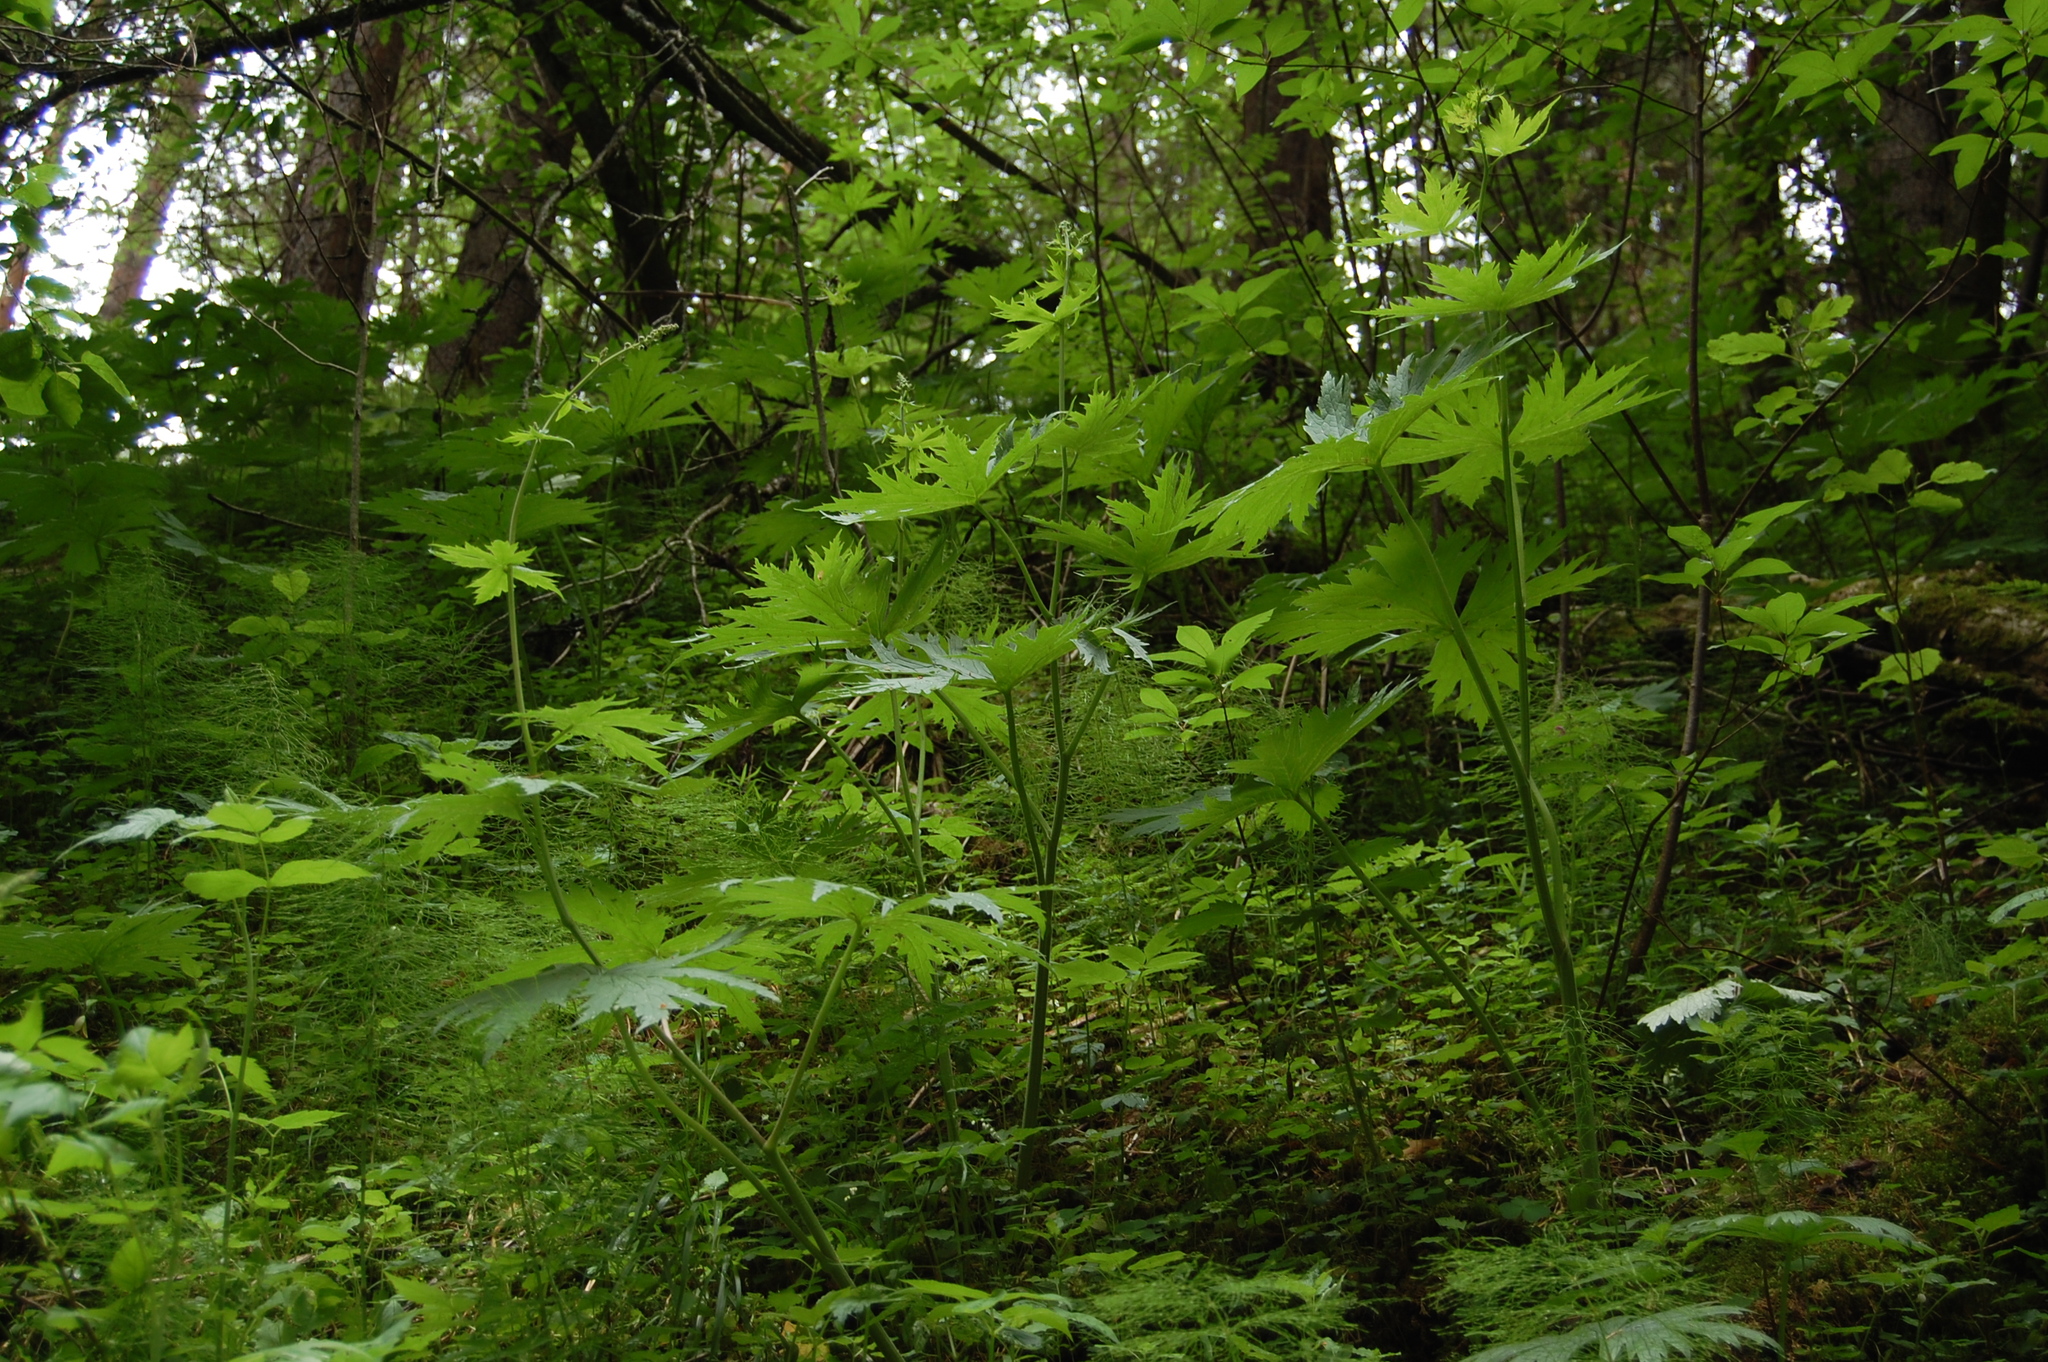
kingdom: Plantae
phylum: Tracheophyta
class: Magnoliopsida
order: Ranunculales
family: Ranunculaceae
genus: Aconitum
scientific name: Aconitum septentrionale
